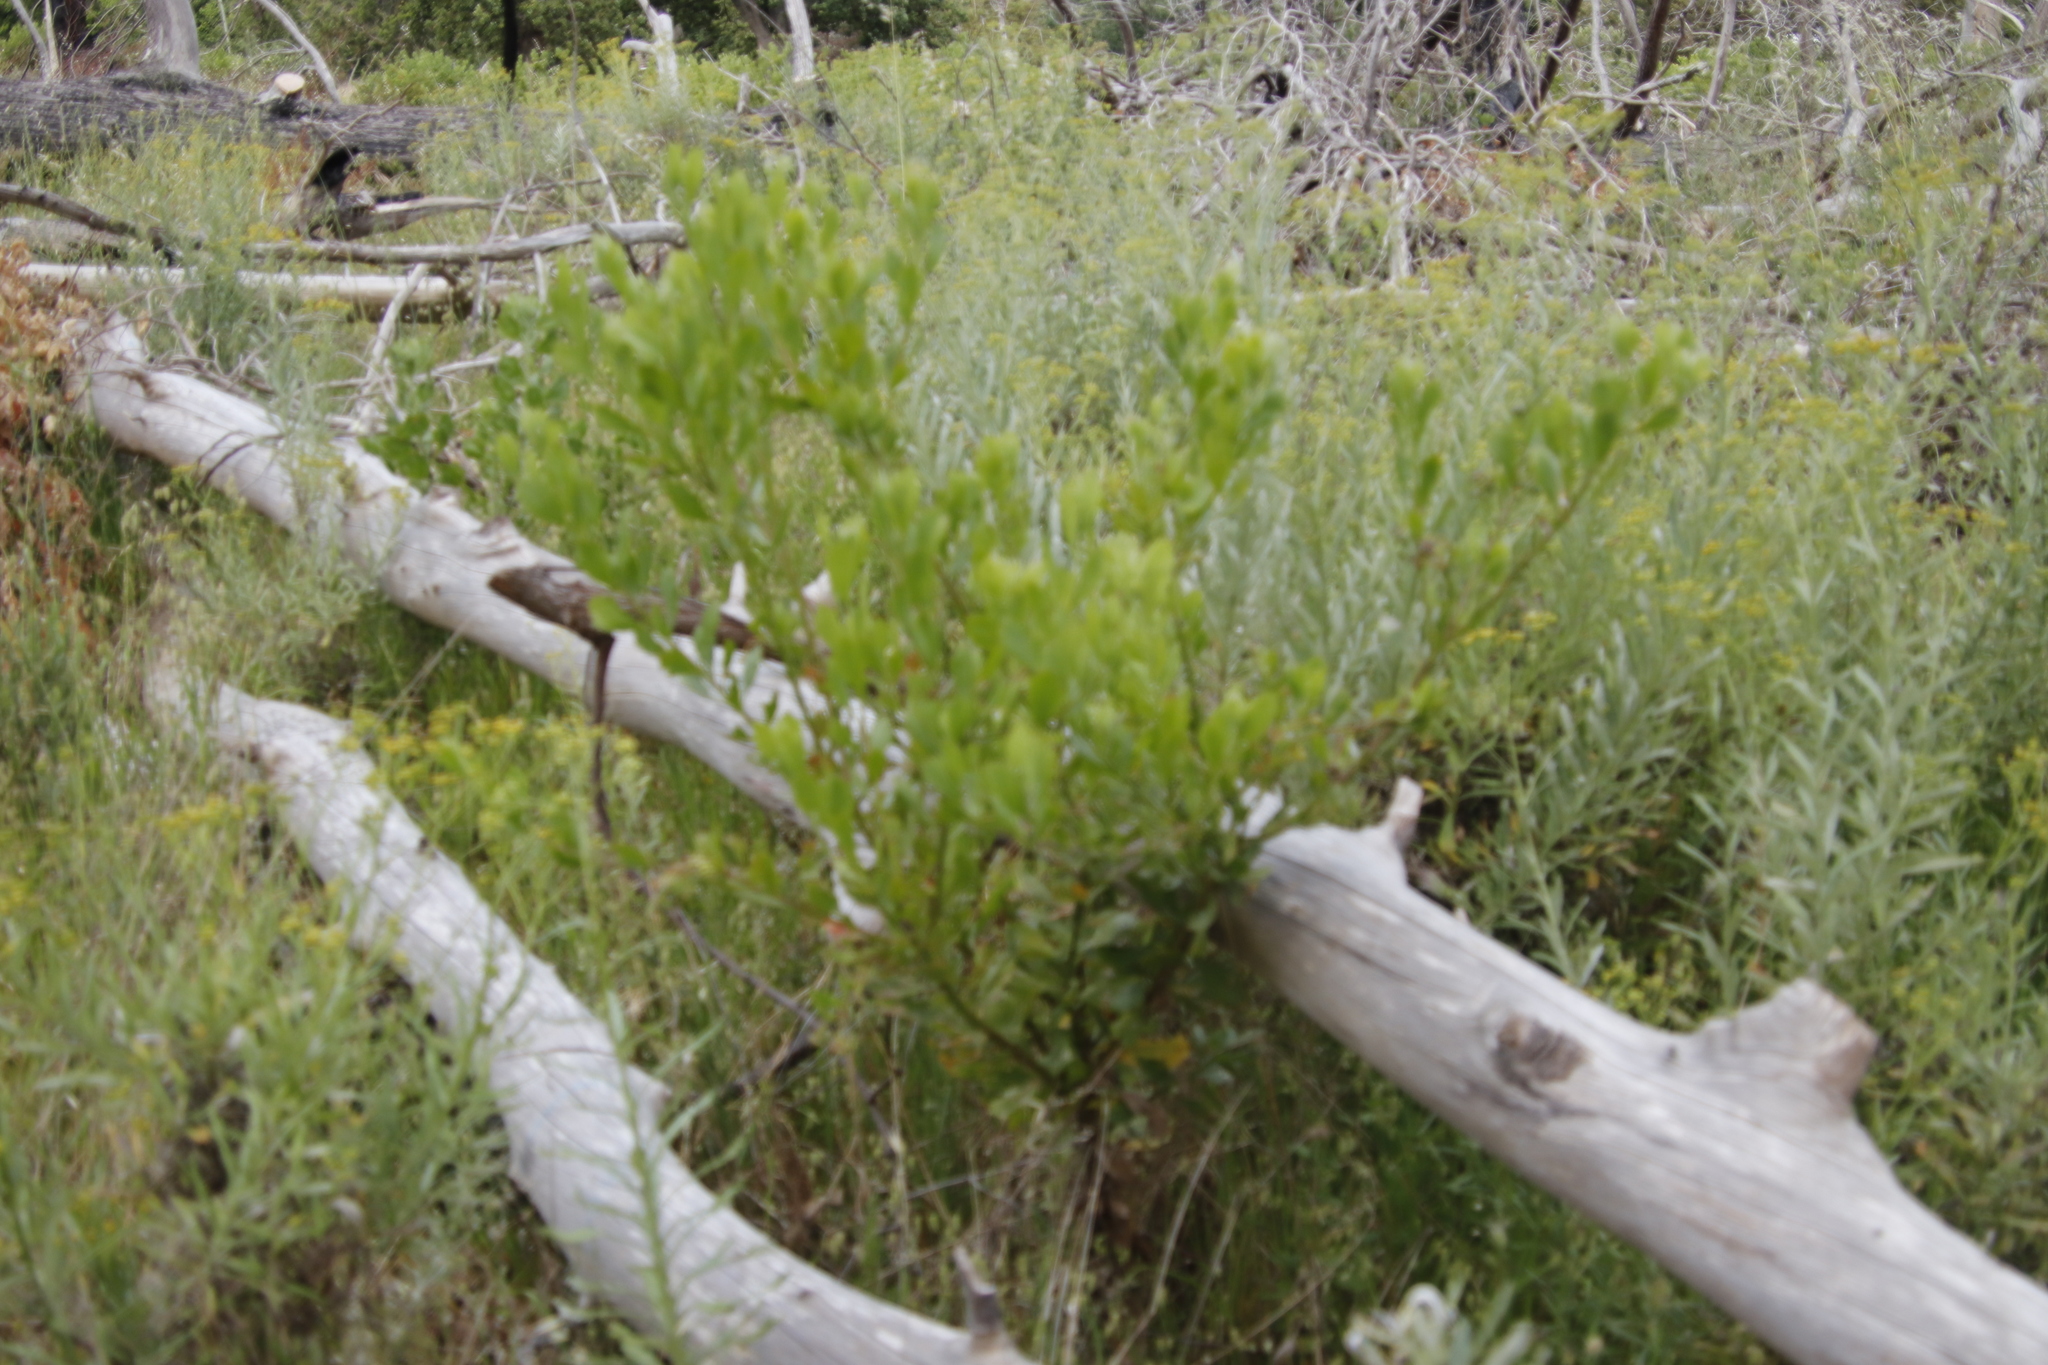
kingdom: Plantae
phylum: Tracheophyta
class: Magnoliopsida
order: Asterales
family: Asteraceae
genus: Osteospermum
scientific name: Osteospermum moniliferum
